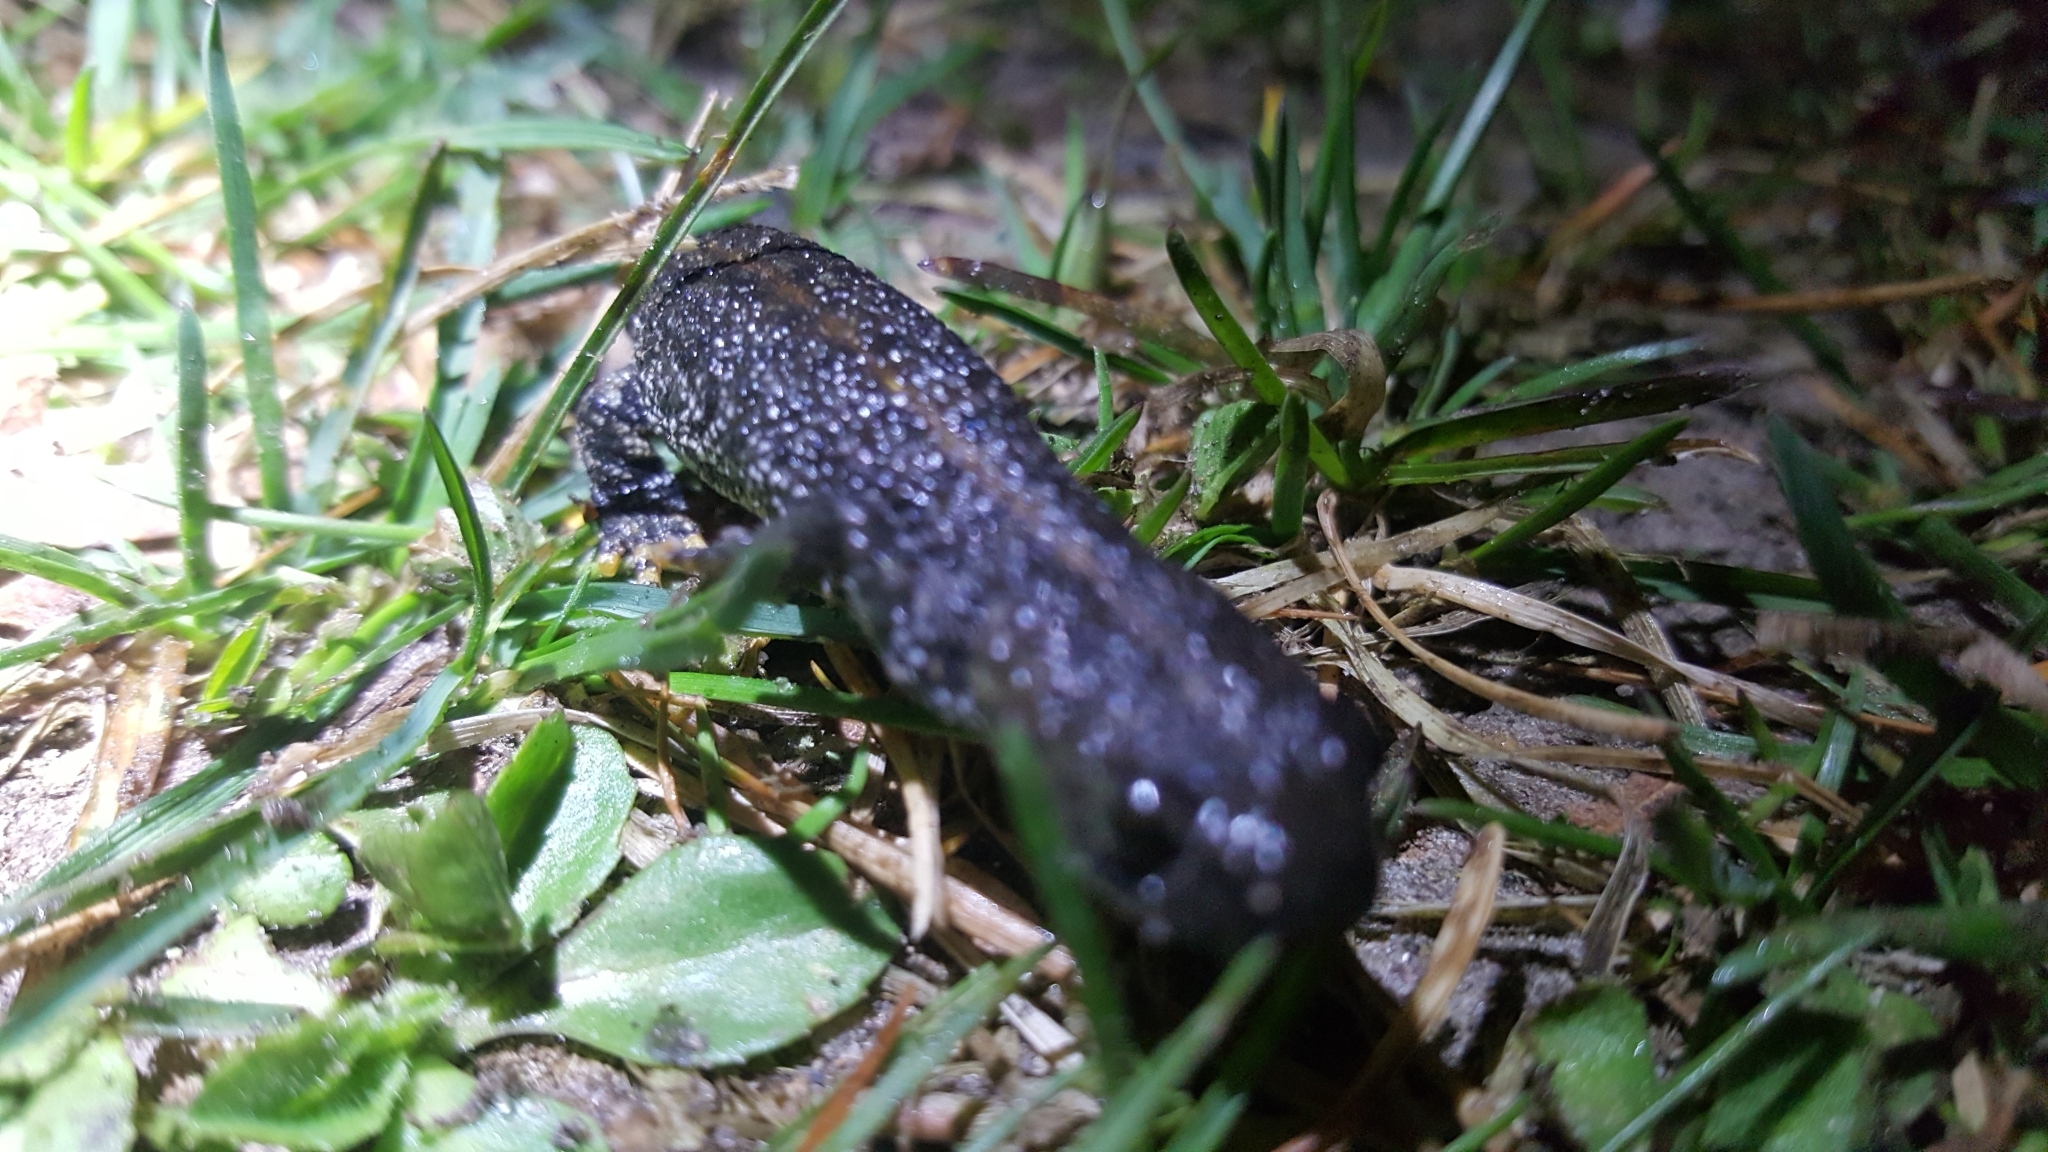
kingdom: Animalia
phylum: Chordata
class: Amphibia
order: Caudata
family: Salamandridae
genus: Triturus
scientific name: Triturus cristatus
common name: Crested newt
